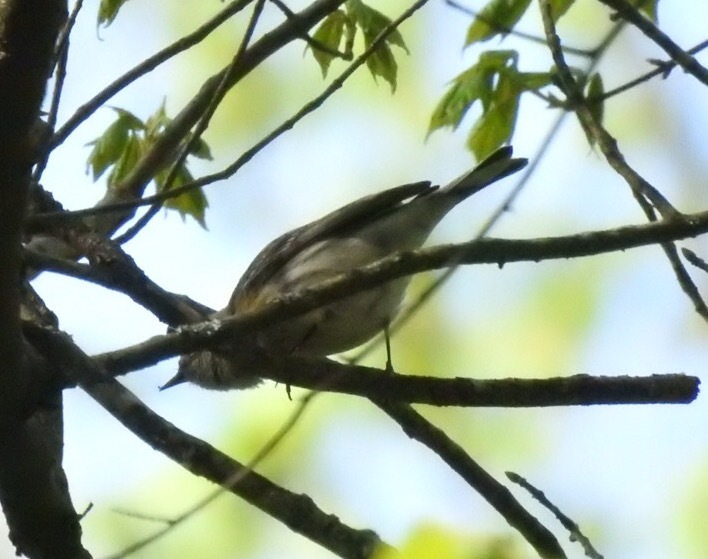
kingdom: Animalia
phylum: Chordata
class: Aves
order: Passeriformes
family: Parulidae
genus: Setophaga
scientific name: Setophaga coronata
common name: Myrtle warbler
